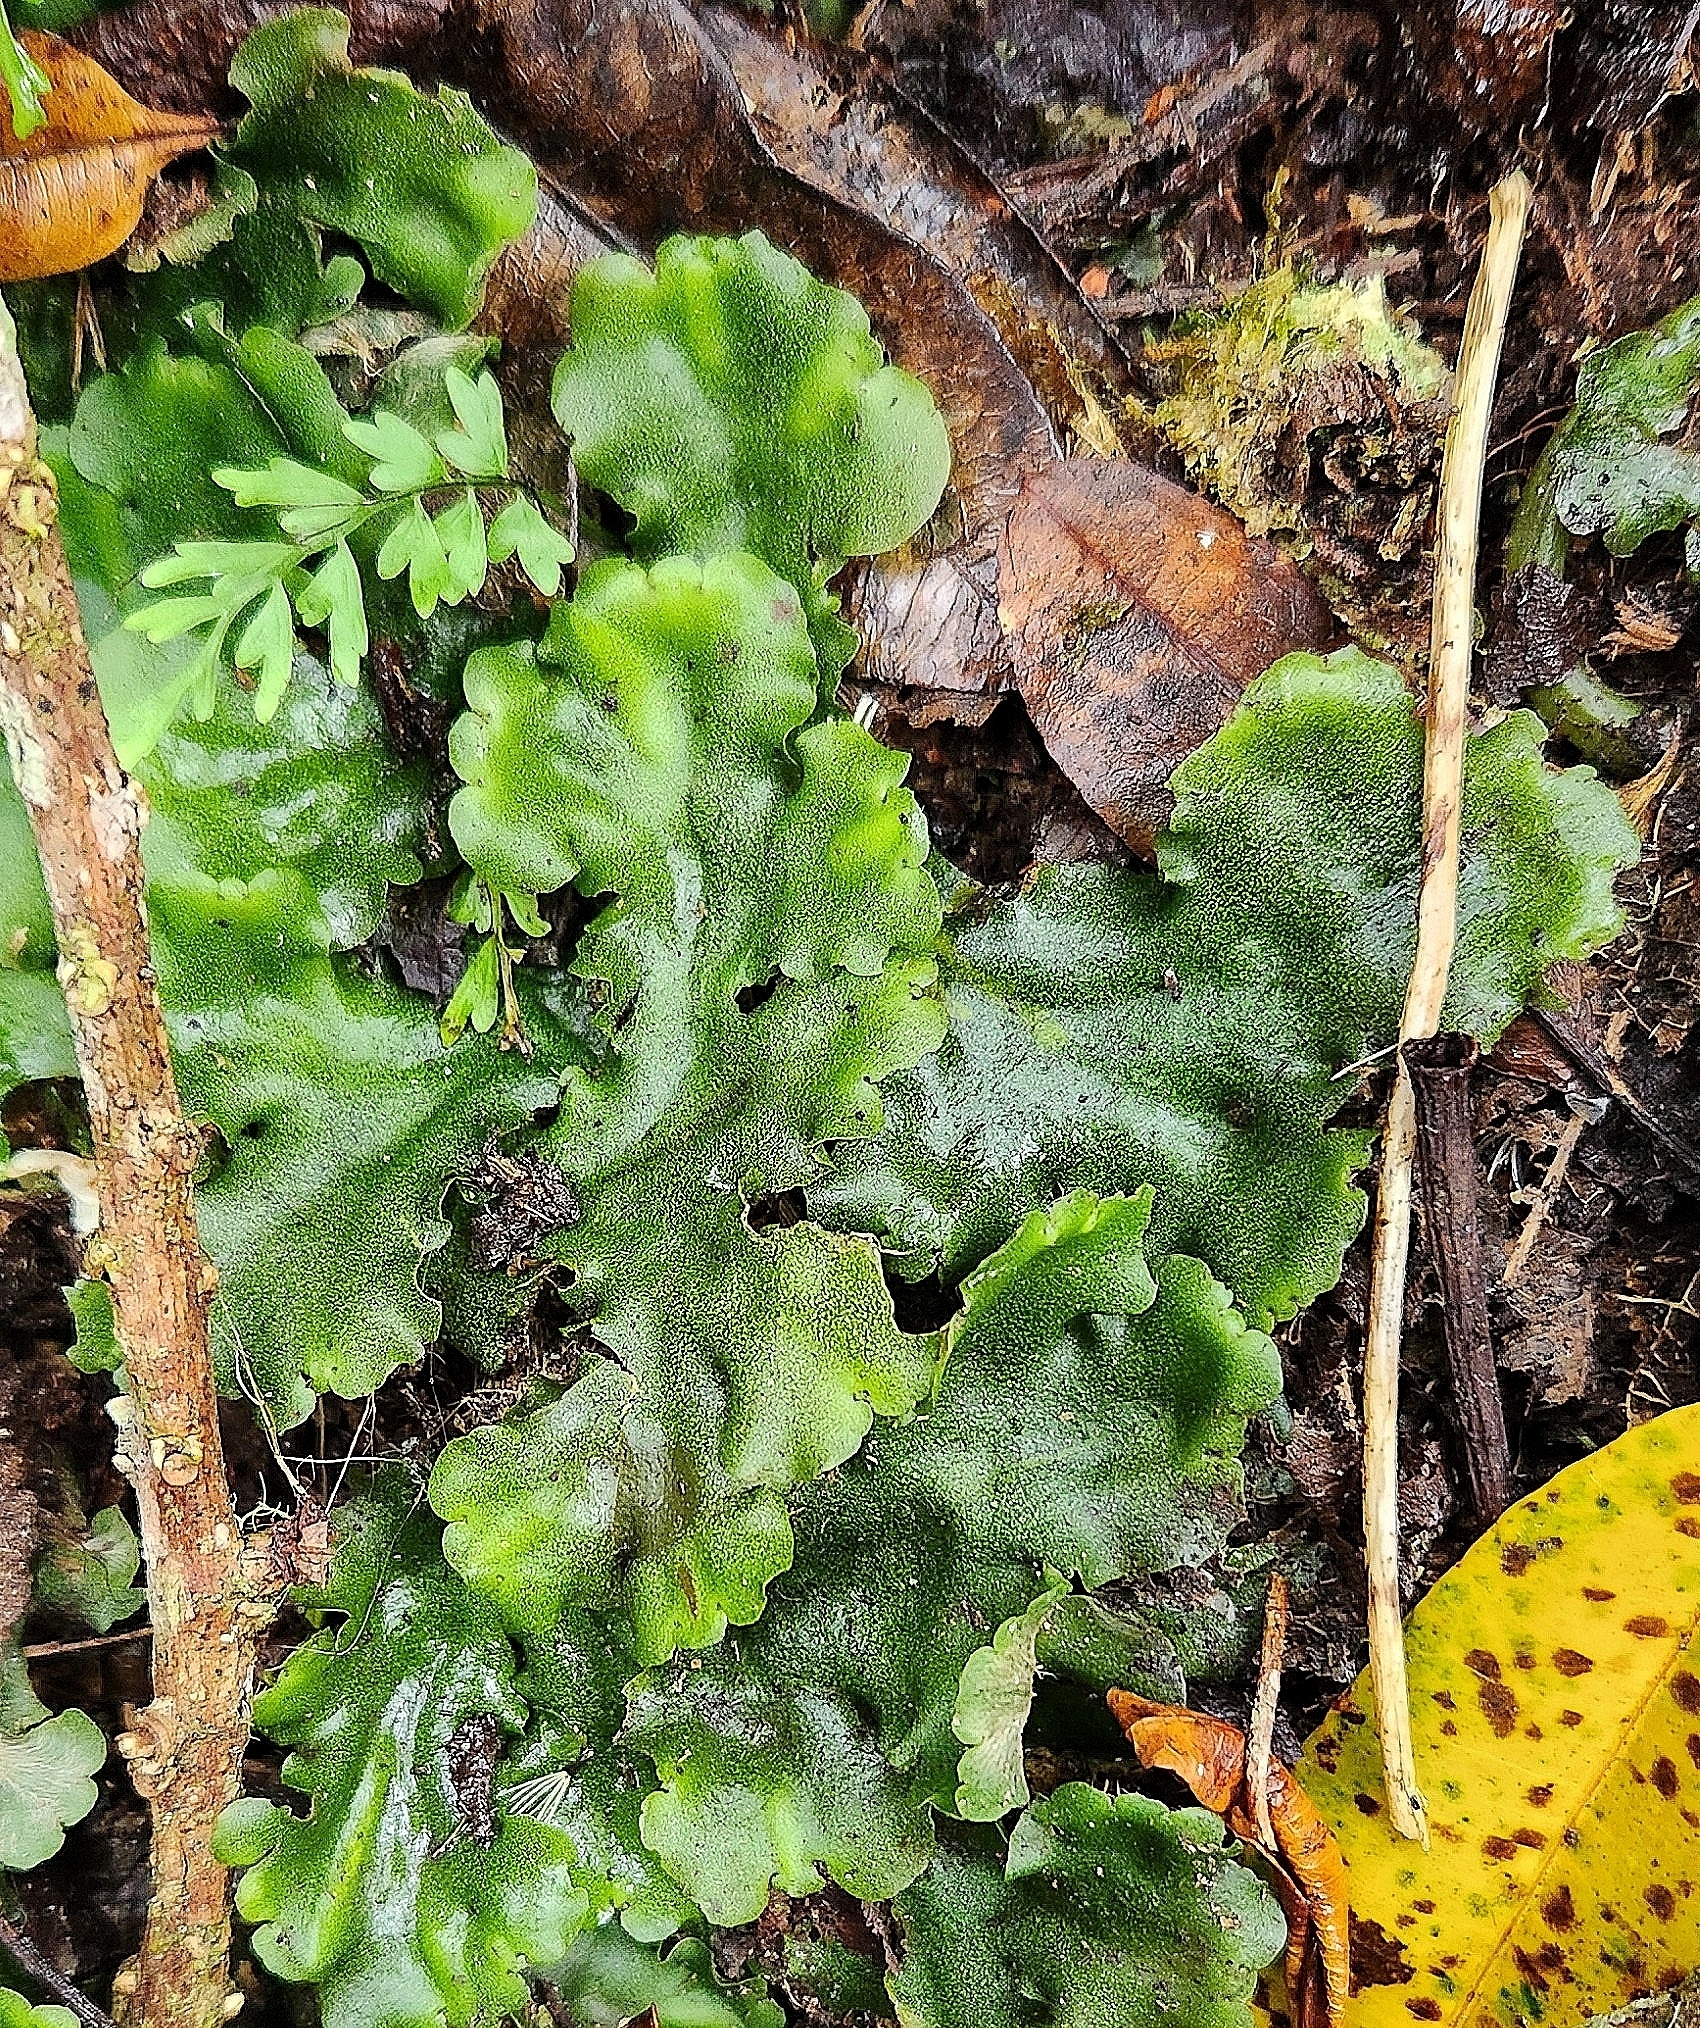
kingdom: Plantae
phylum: Marchantiophyta
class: Marchantiopsida
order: Marchantiales
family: Monocleaceae
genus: Monoclea
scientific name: Monoclea gottschei
